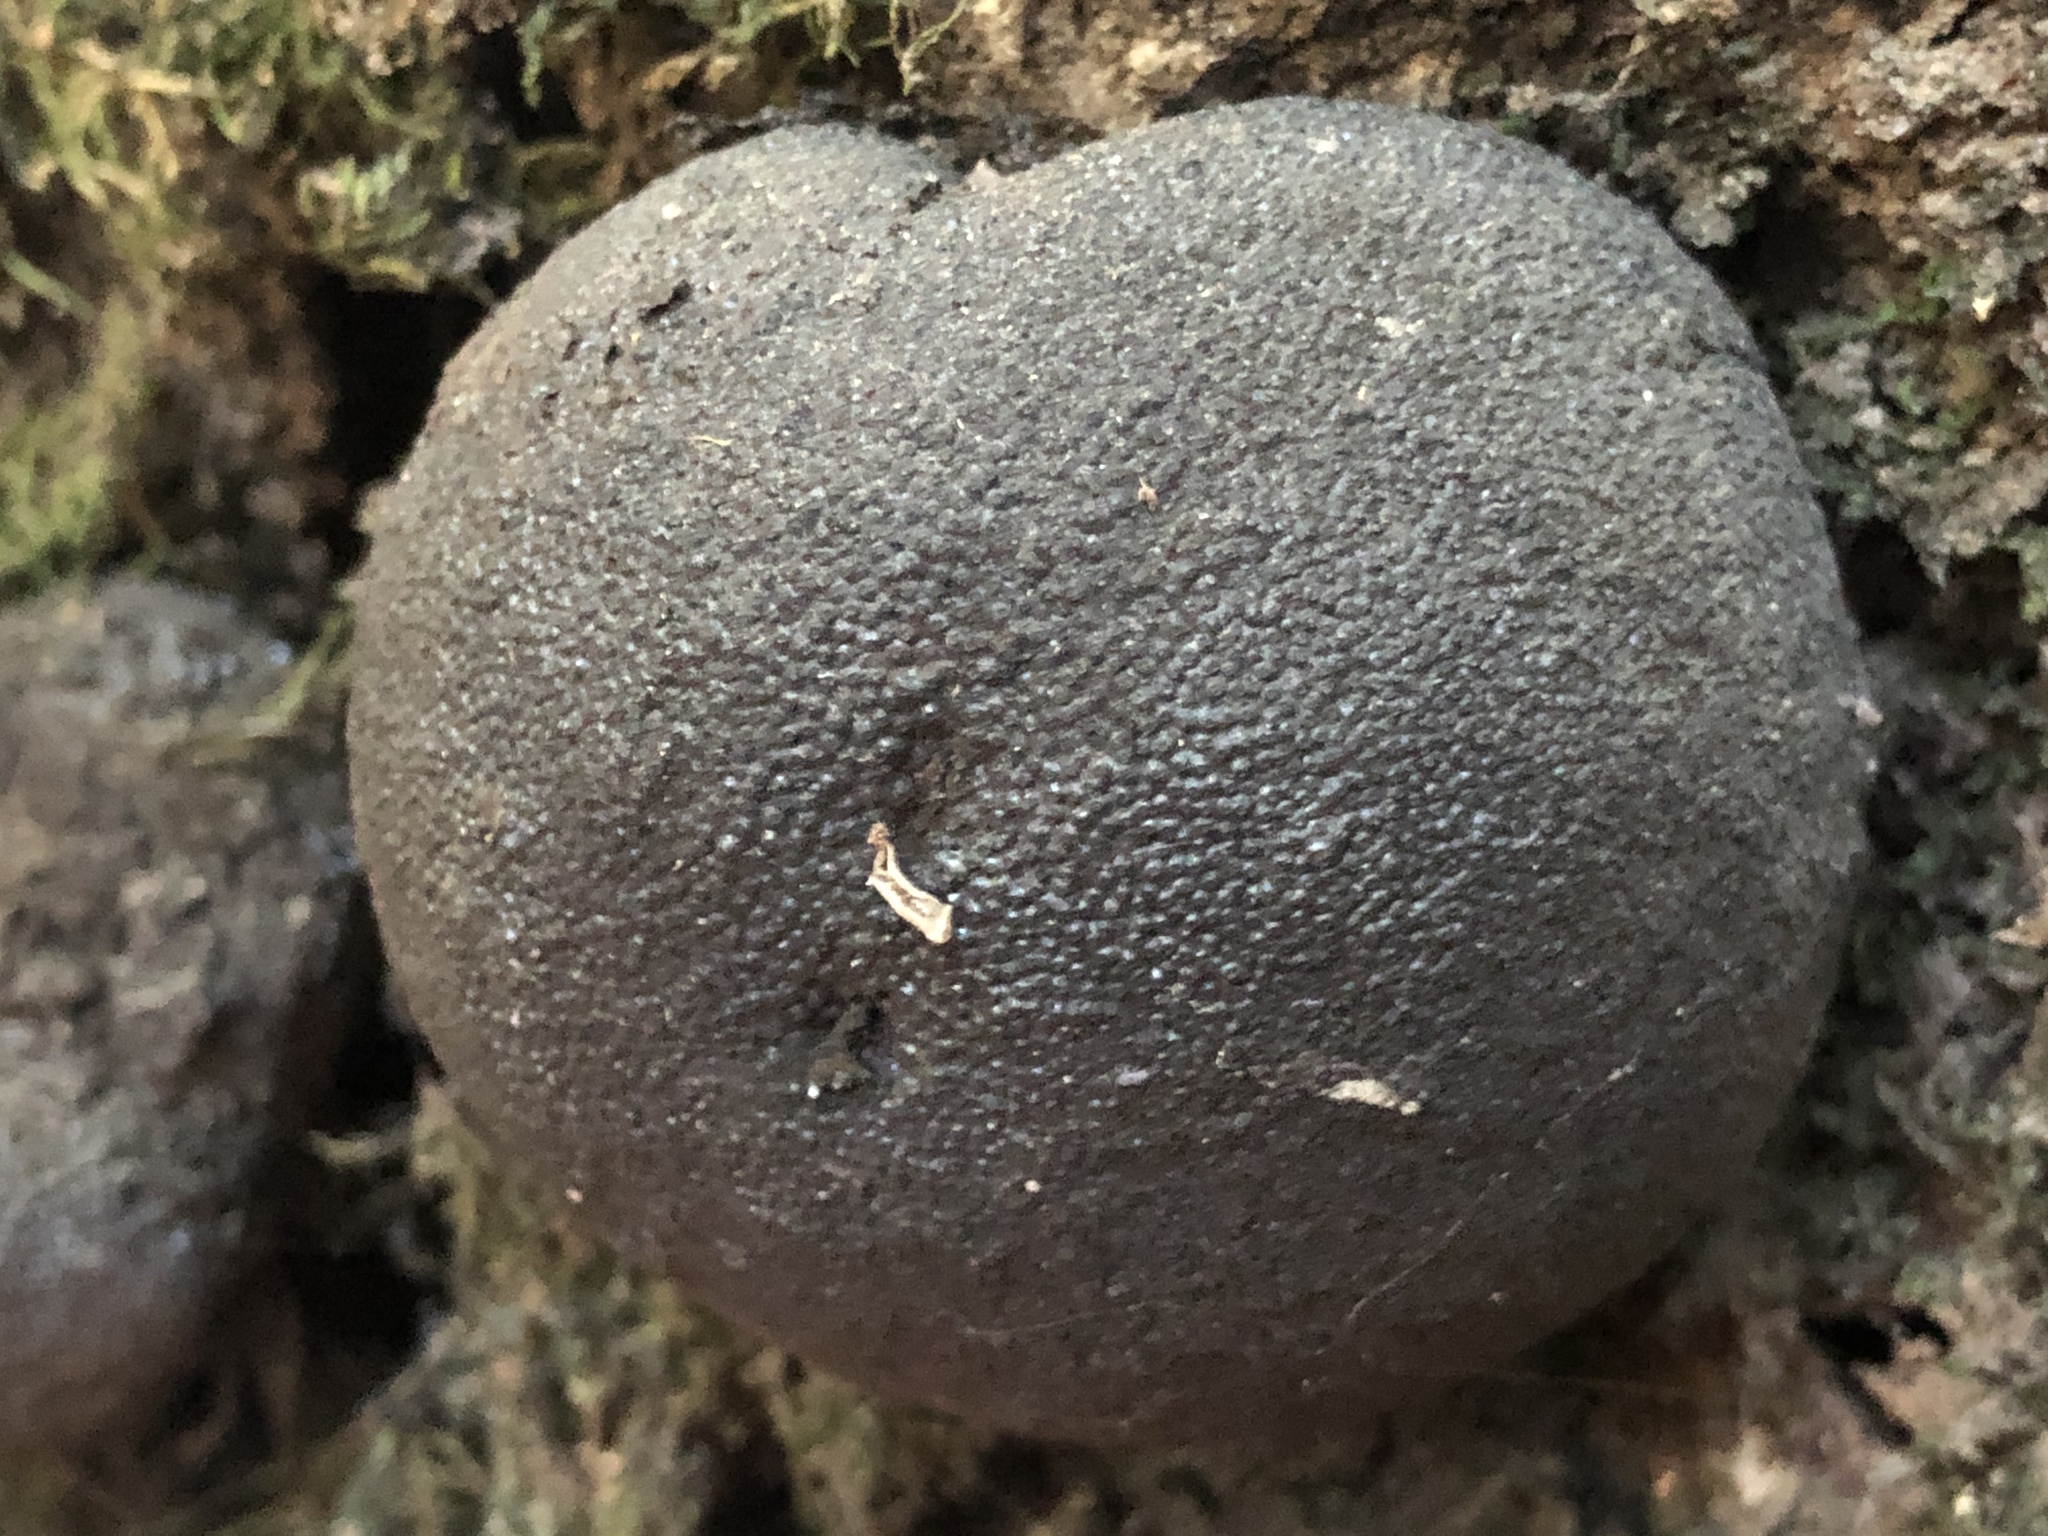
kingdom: Fungi
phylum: Ascomycota
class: Sordariomycetes
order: Xylariales
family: Hypoxylaceae
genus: Annulohypoxylon
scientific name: Annulohypoxylon thouarsianum
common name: Cramp balls
